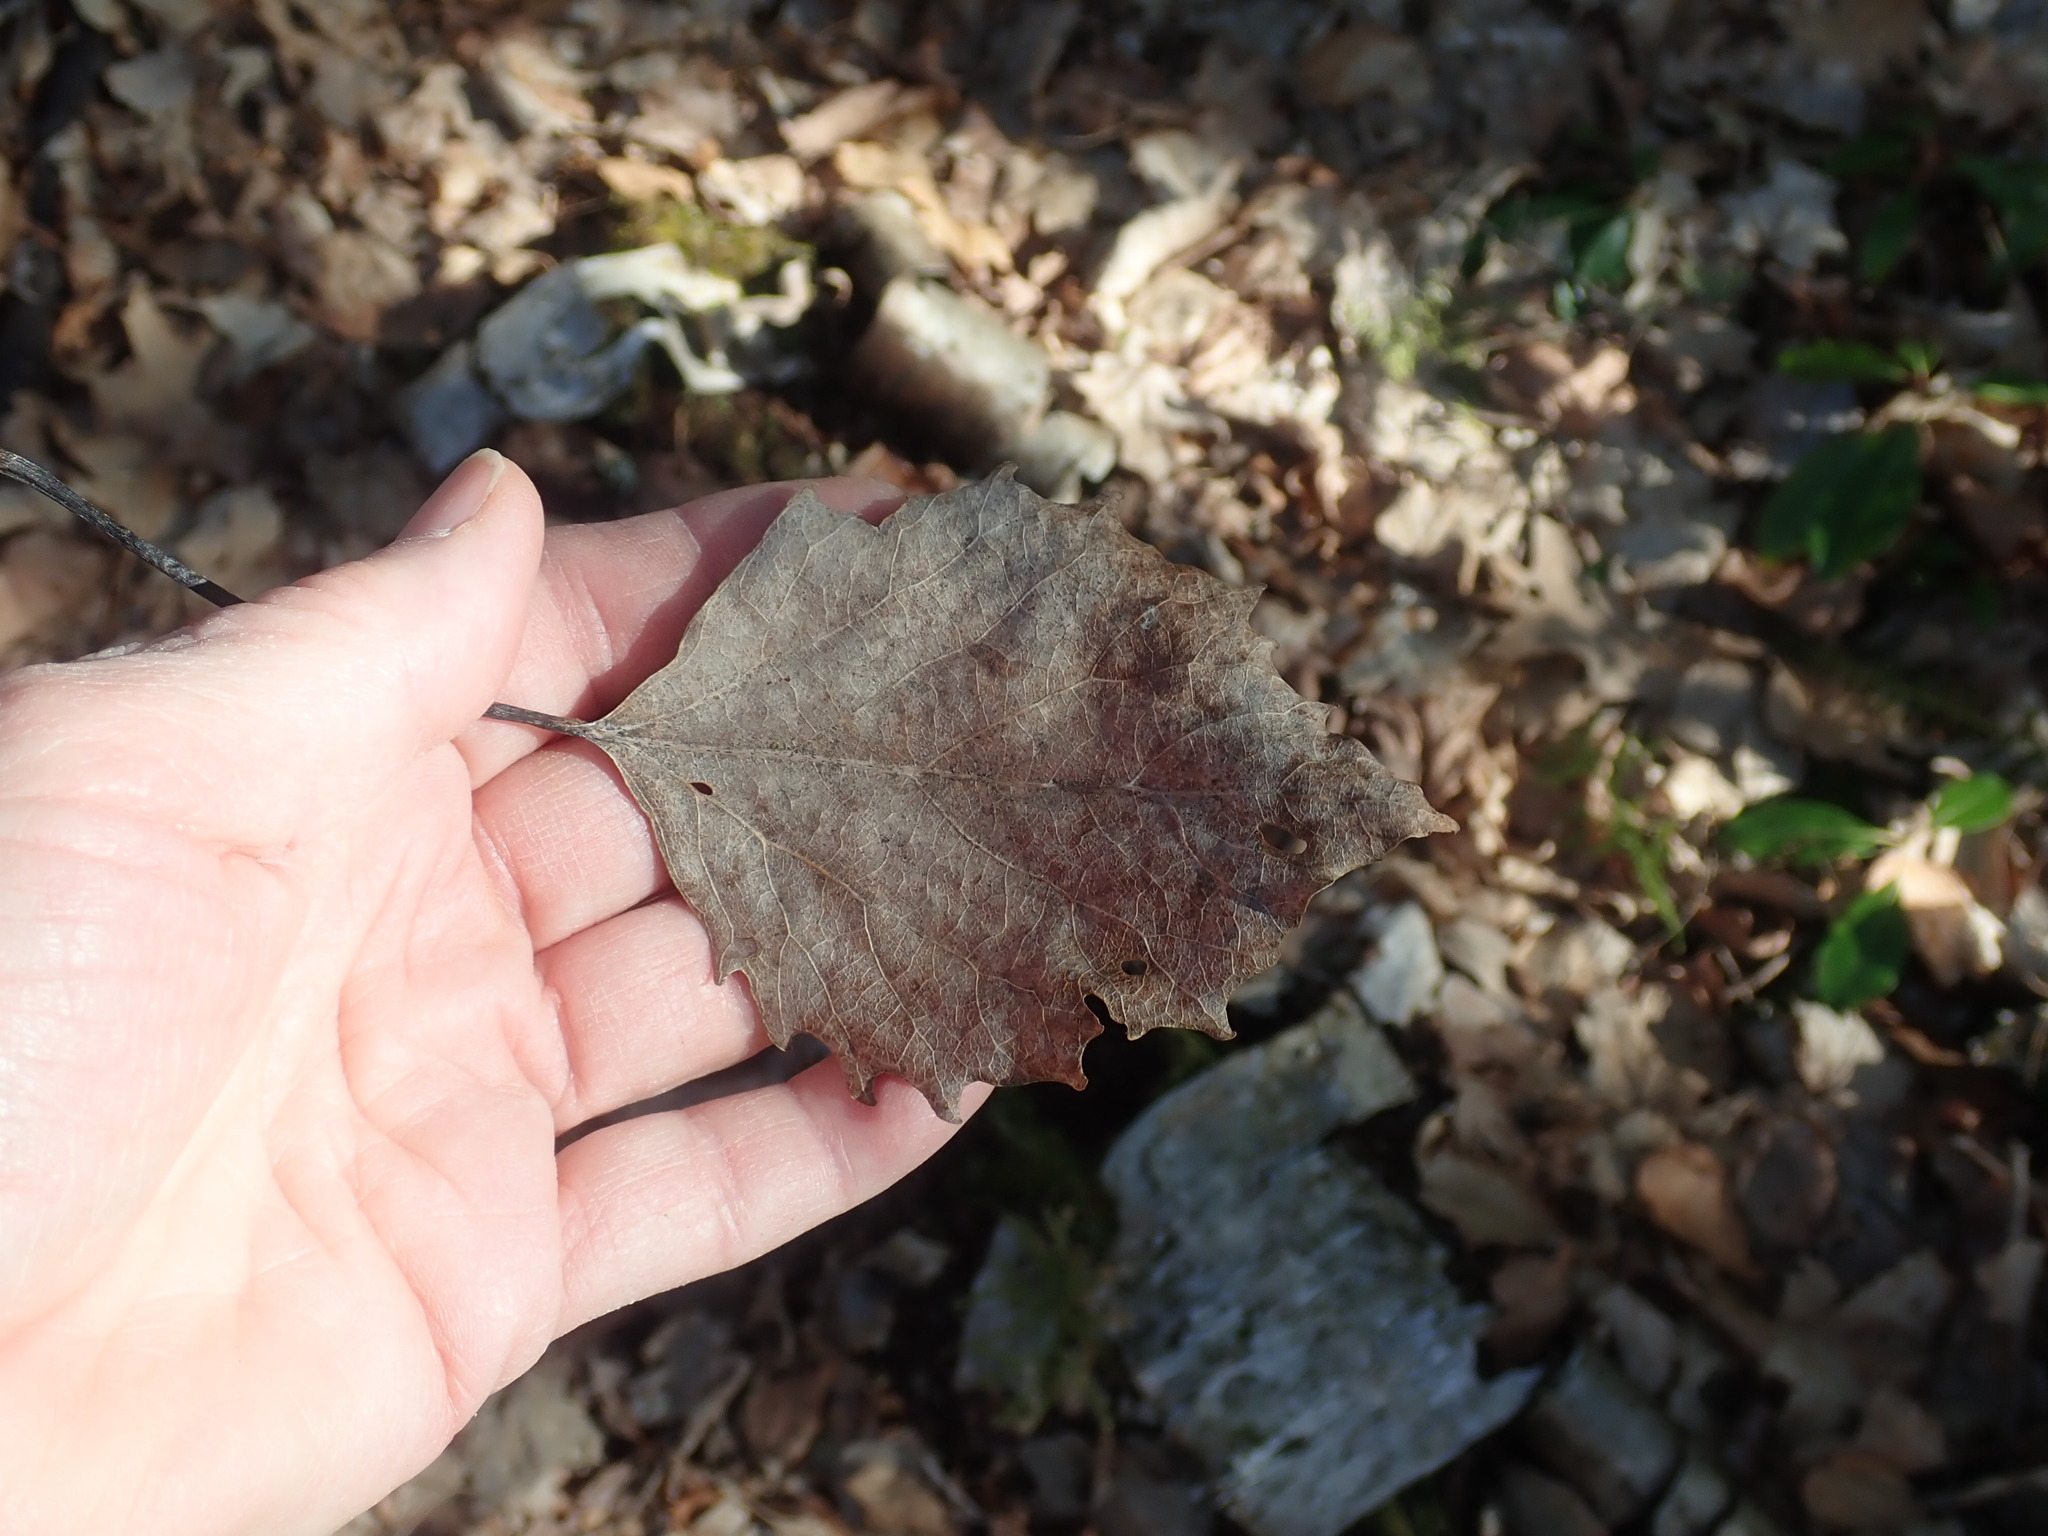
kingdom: Plantae
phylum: Tracheophyta
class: Magnoliopsida
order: Malpighiales
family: Salicaceae
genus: Populus
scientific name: Populus grandidentata
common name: Bigtooth aspen
